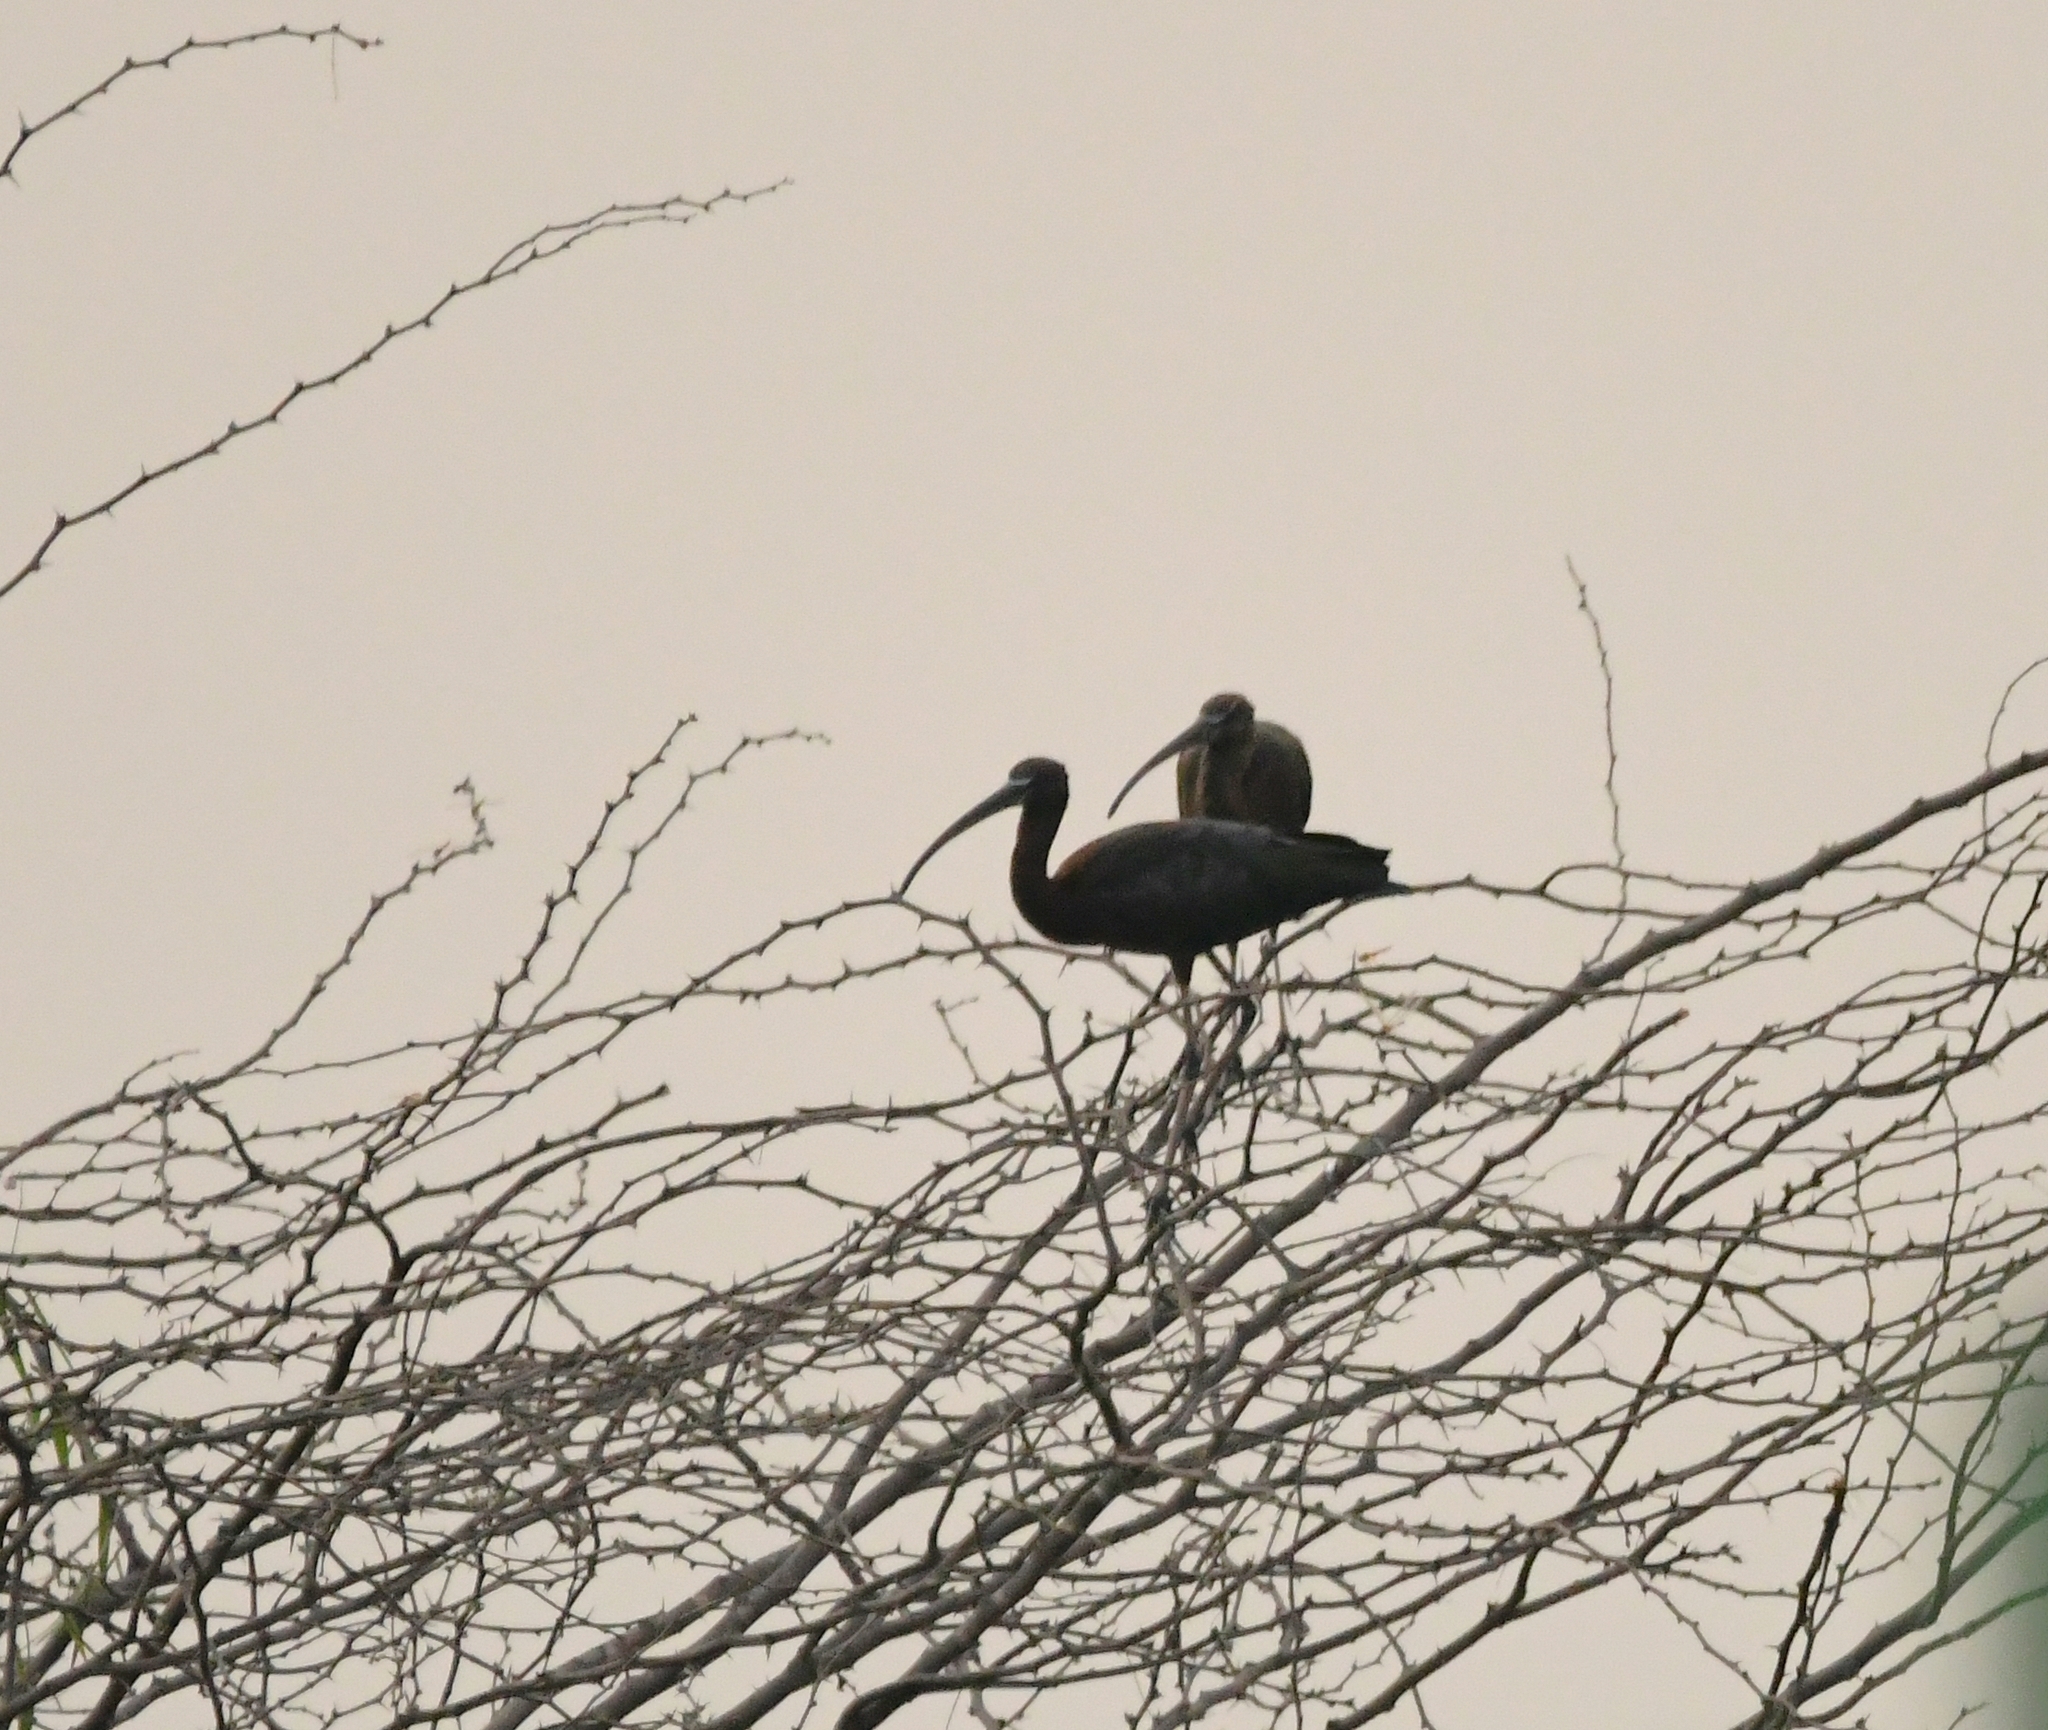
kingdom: Animalia
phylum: Chordata
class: Aves
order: Pelecaniformes
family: Threskiornithidae
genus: Plegadis
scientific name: Plegadis falcinellus
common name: Glossy ibis
